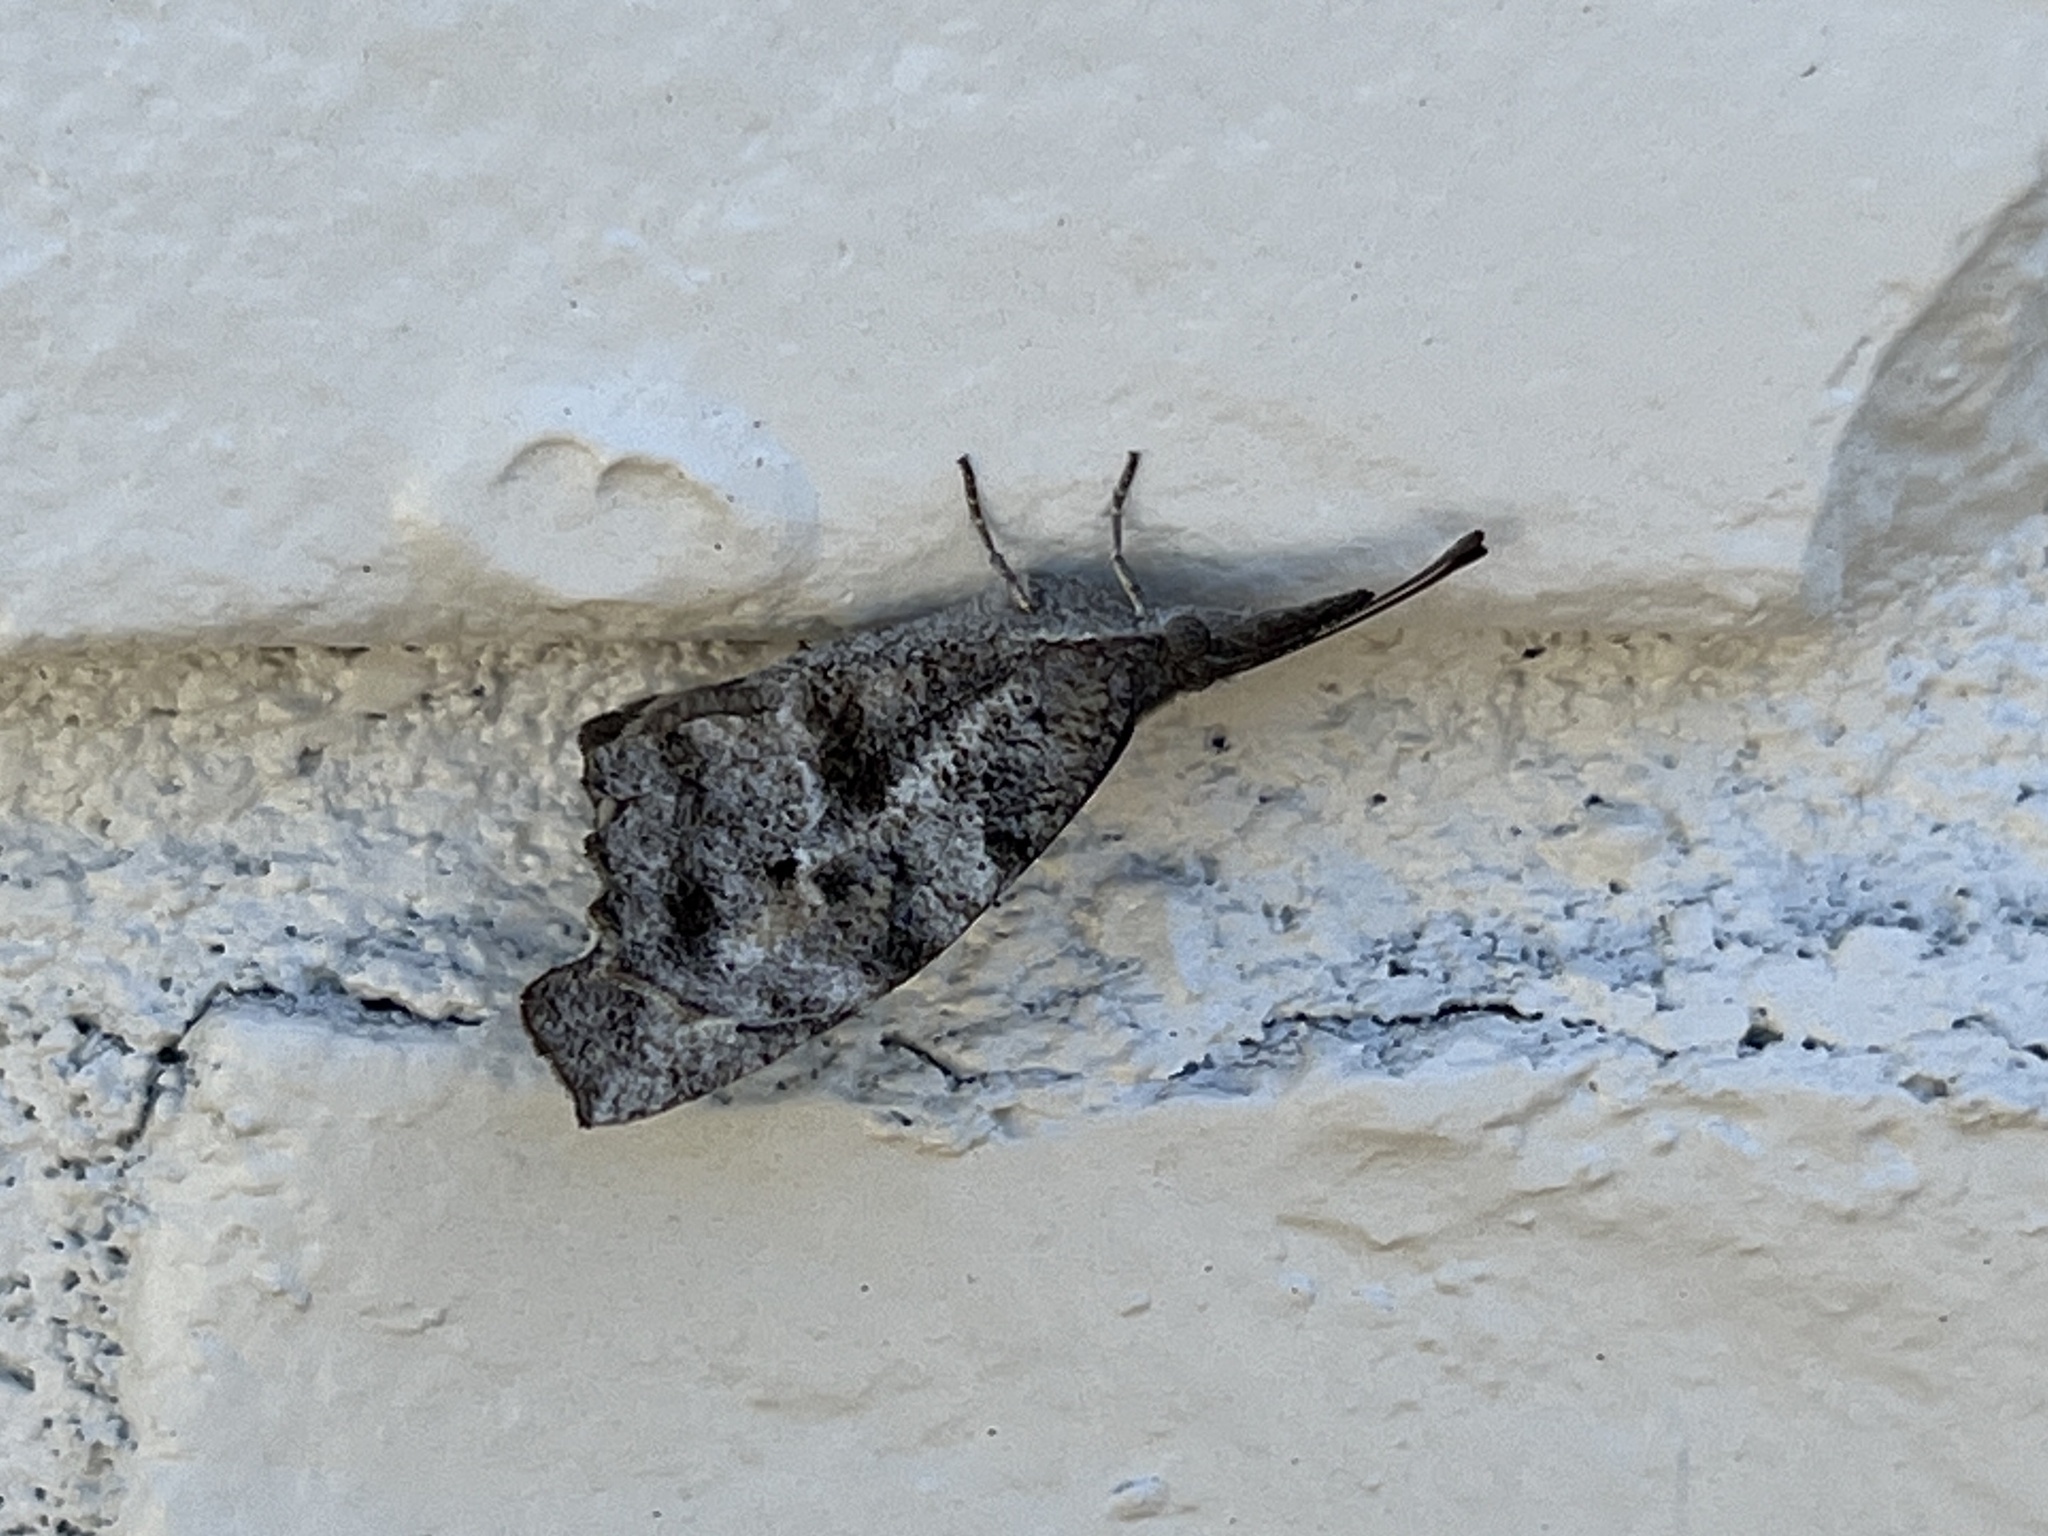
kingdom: Animalia
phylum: Arthropoda
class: Insecta
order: Lepidoptera
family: Nymphalidae
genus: Libytheana
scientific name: Libytheana carinenta
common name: American snout
